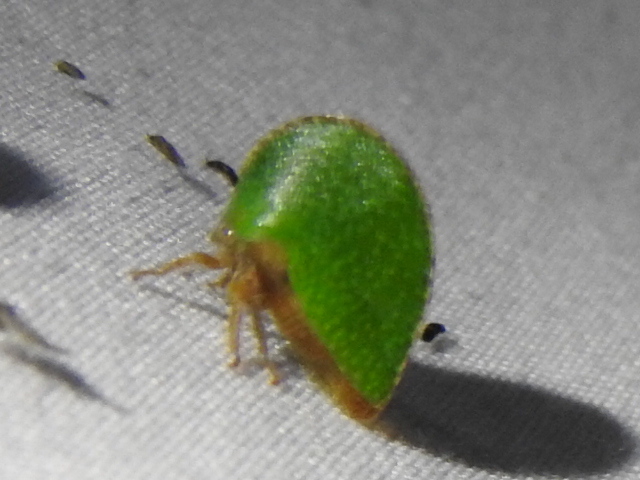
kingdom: Animalia
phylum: Arthropoda
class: Insecta
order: Hemiptera
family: Membracidae
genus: Archasia
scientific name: Archasia auriculata
